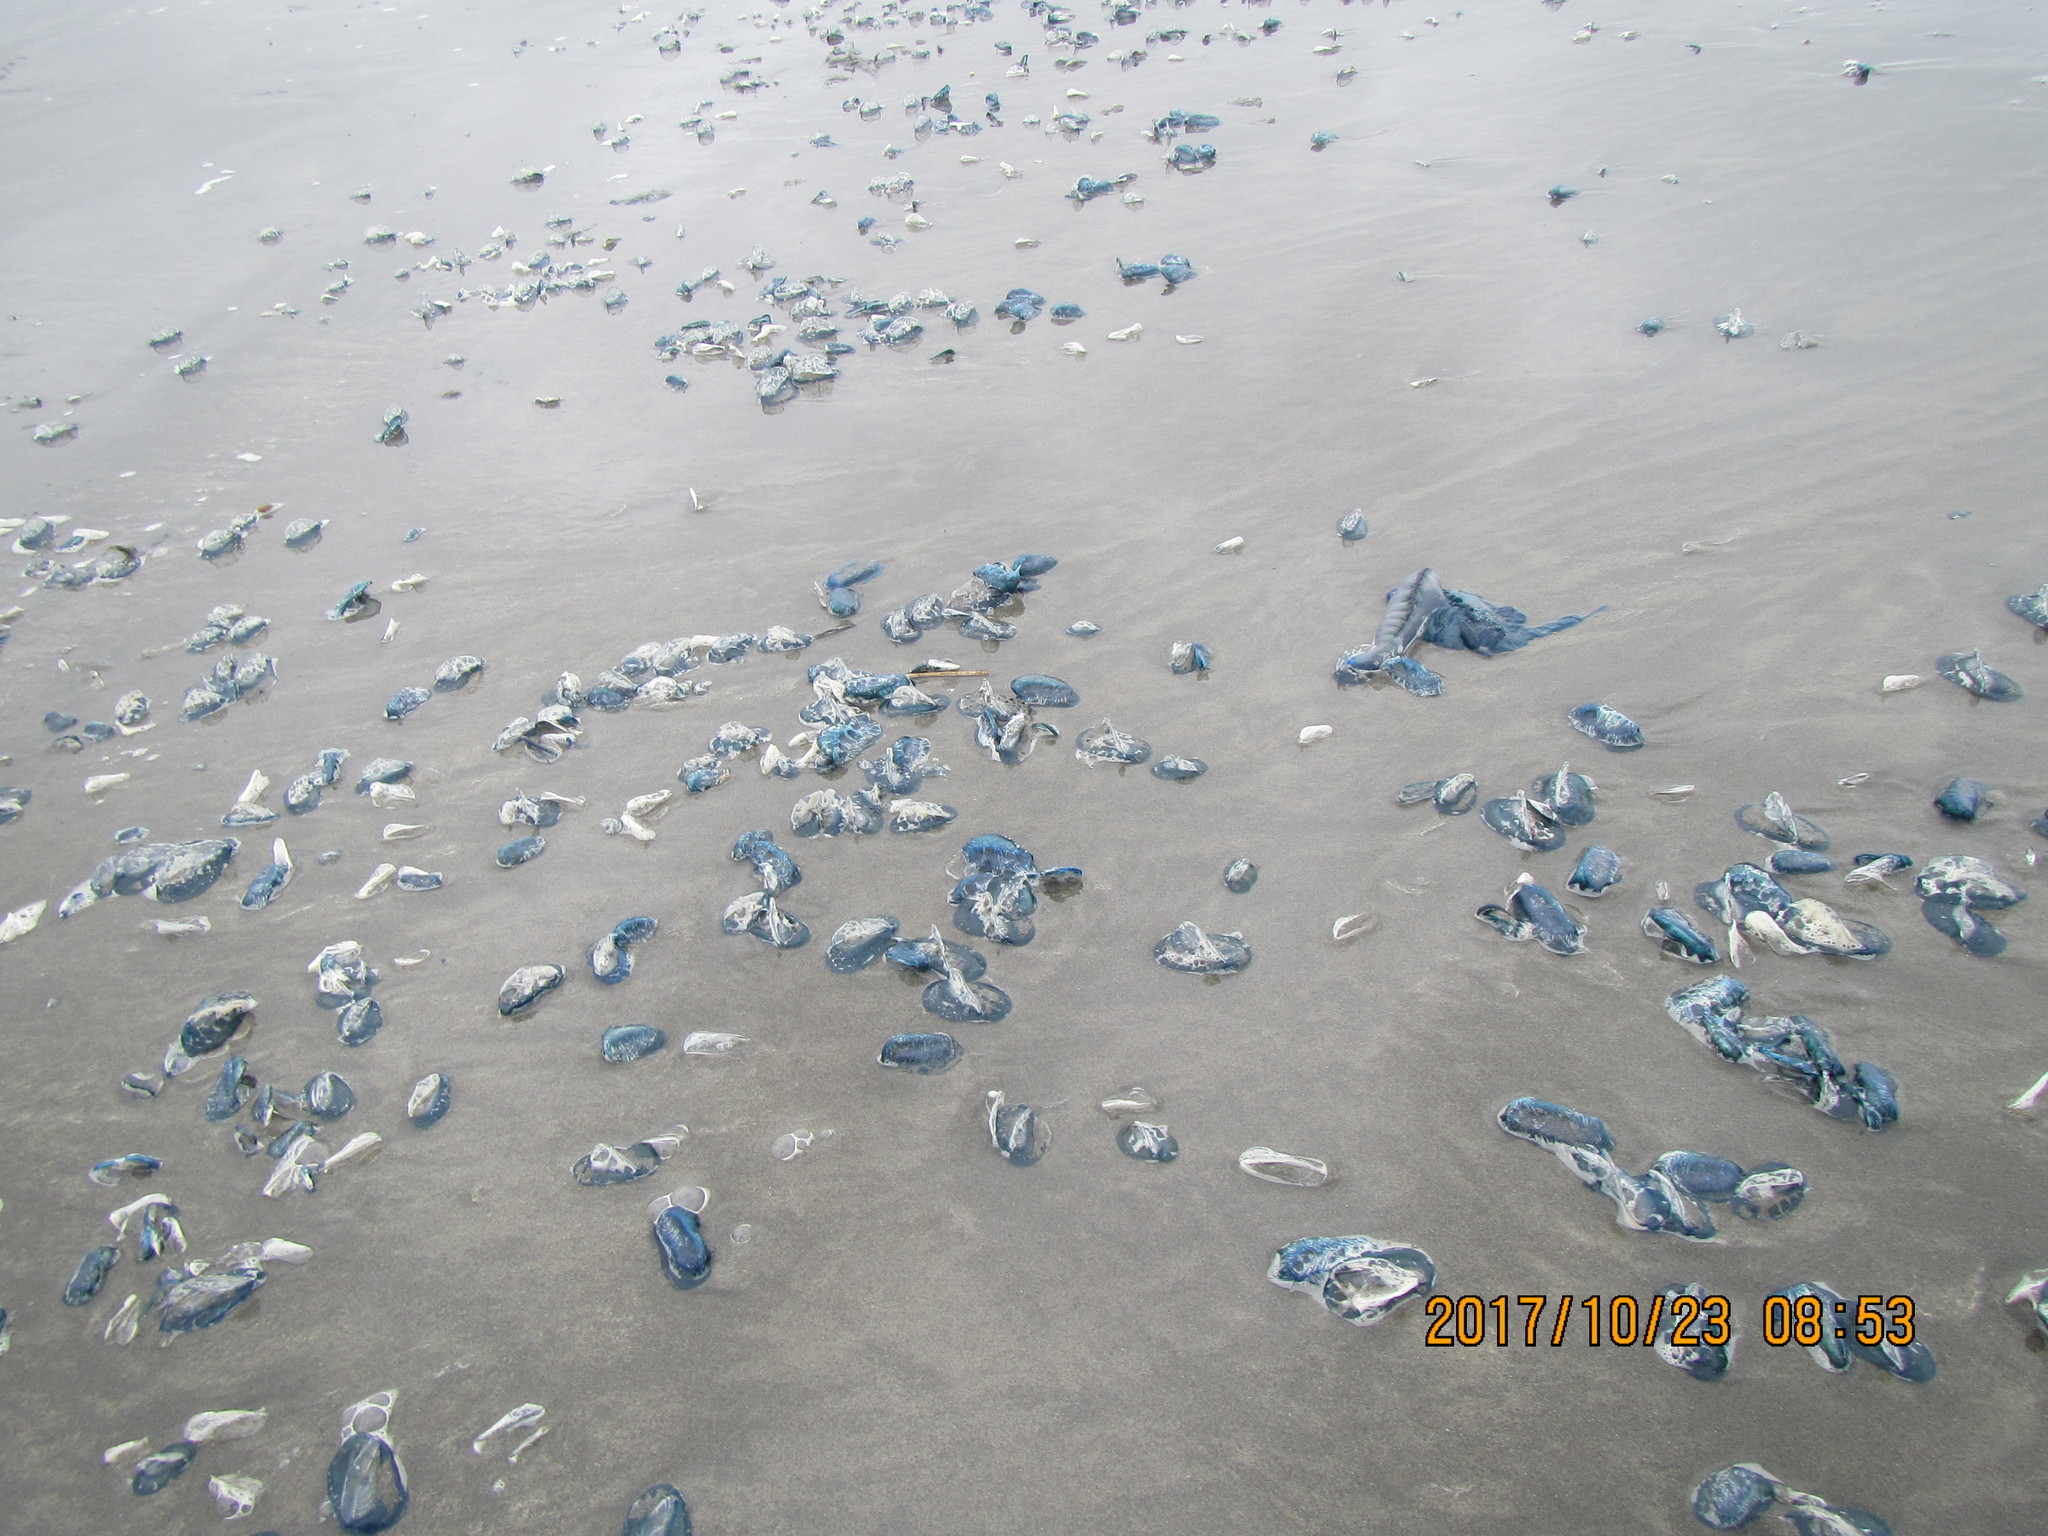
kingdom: Animalia
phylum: Cnidaria
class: Hydrozoa
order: Siphonophorae
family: Physaliidae
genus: Physalia
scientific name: Physalia physalis
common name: Portuguese man-of-war
